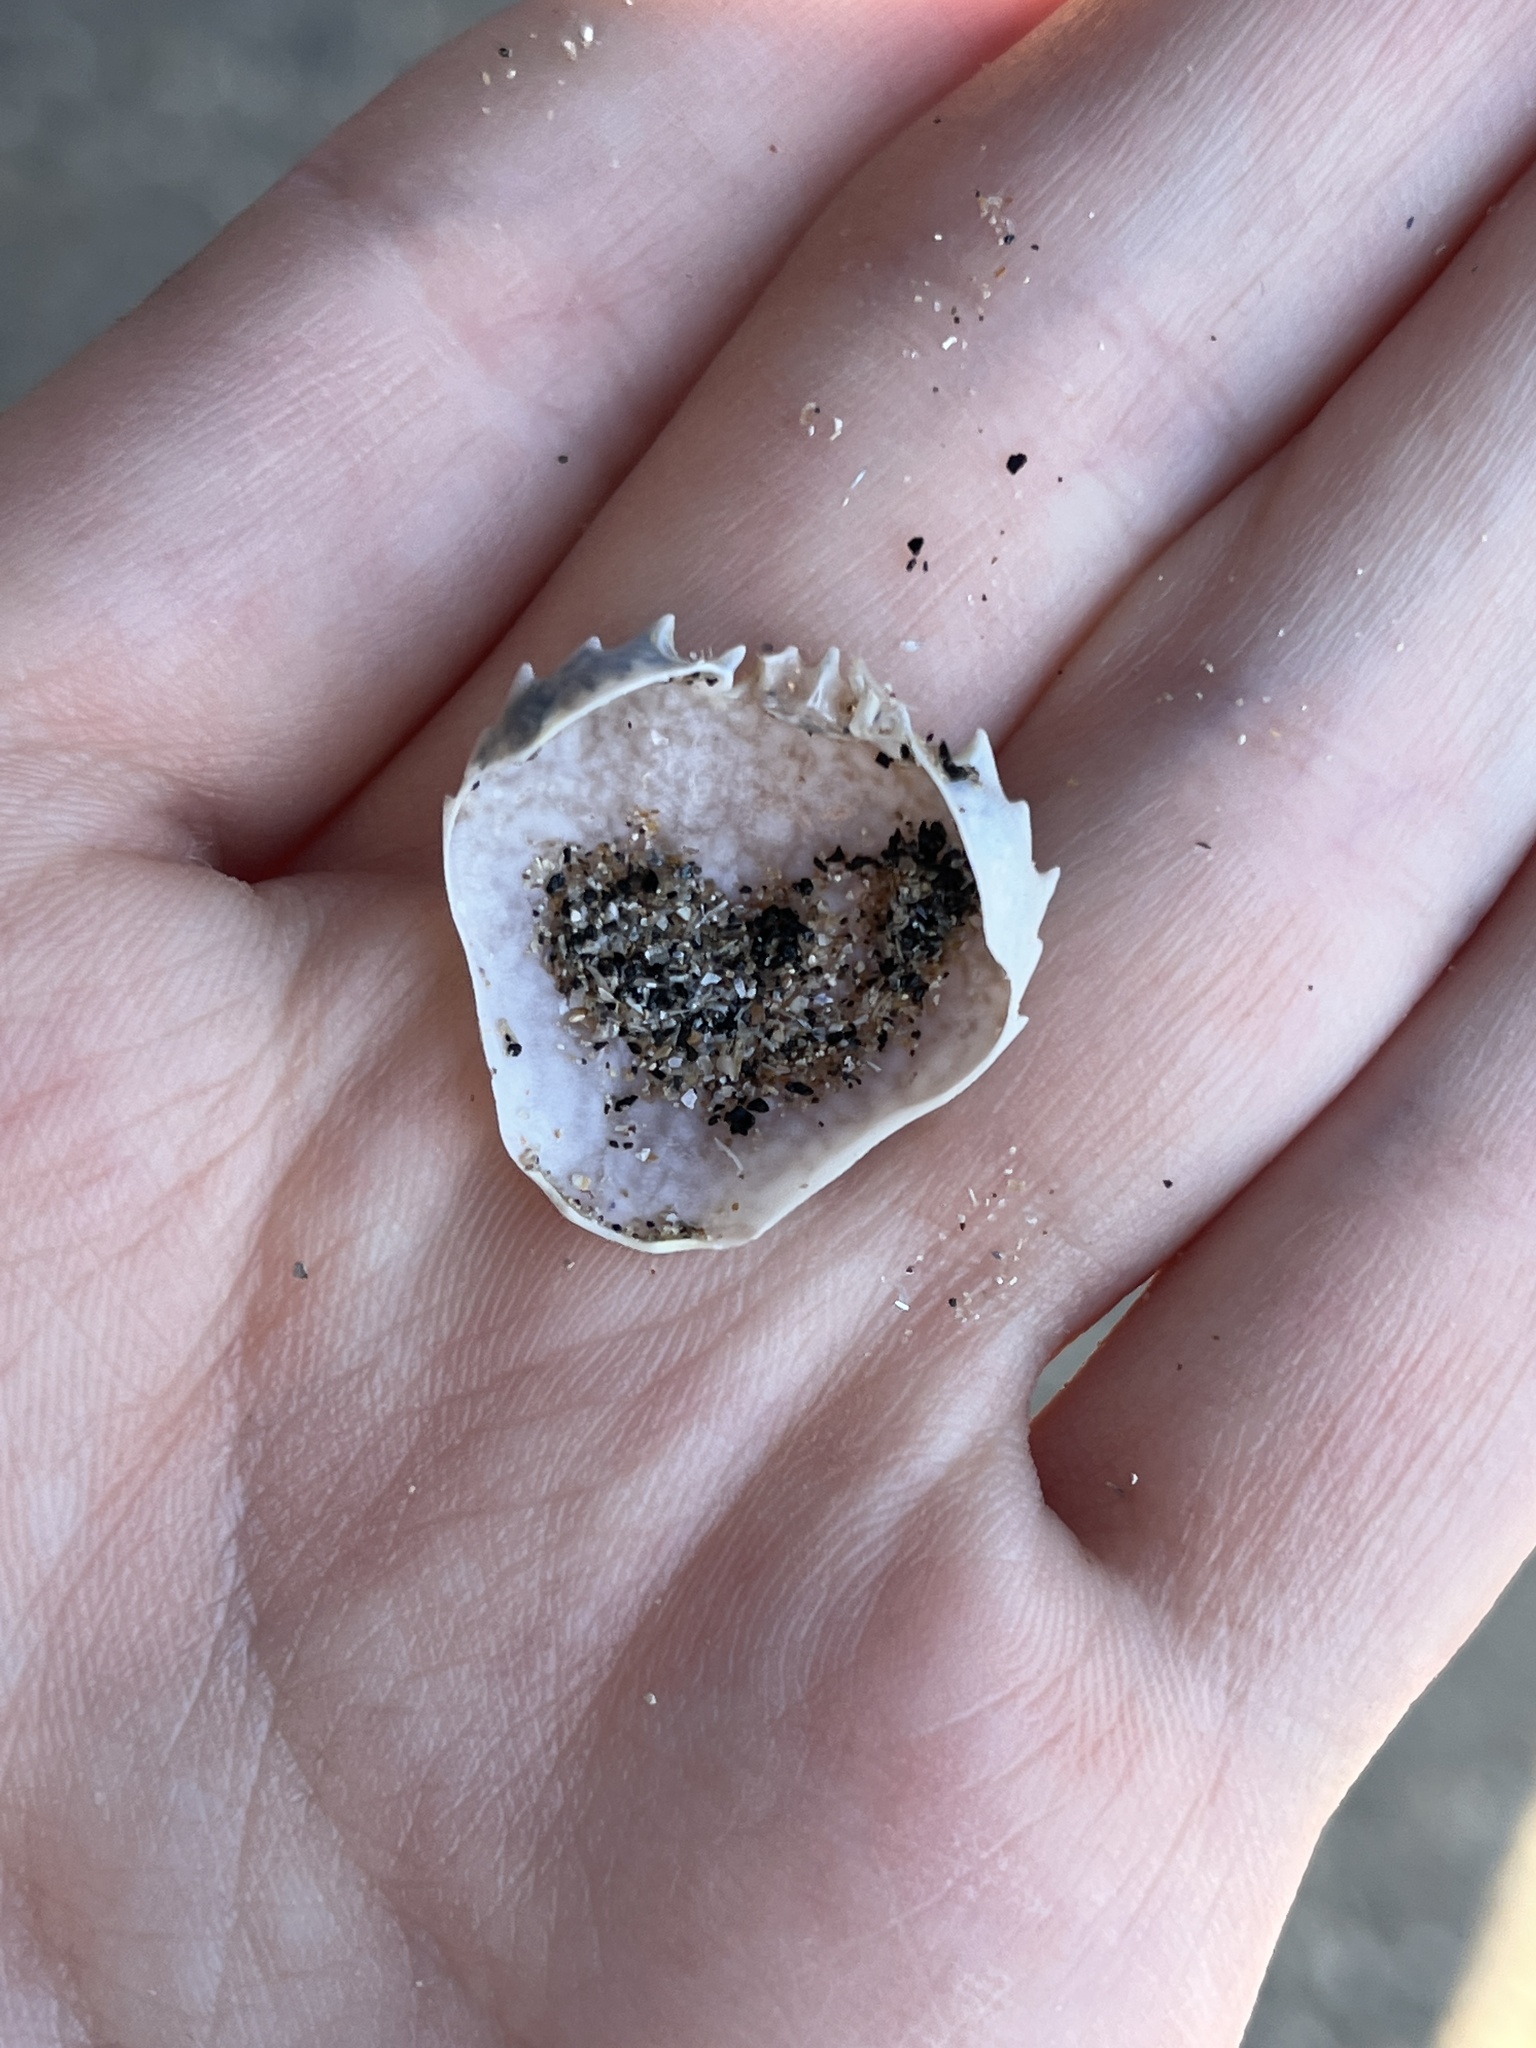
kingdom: Animalia
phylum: Arthropoda
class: Malacostraca
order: Decapoda
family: Carcinidae
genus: Portumnus
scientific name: Portumnus latipes
